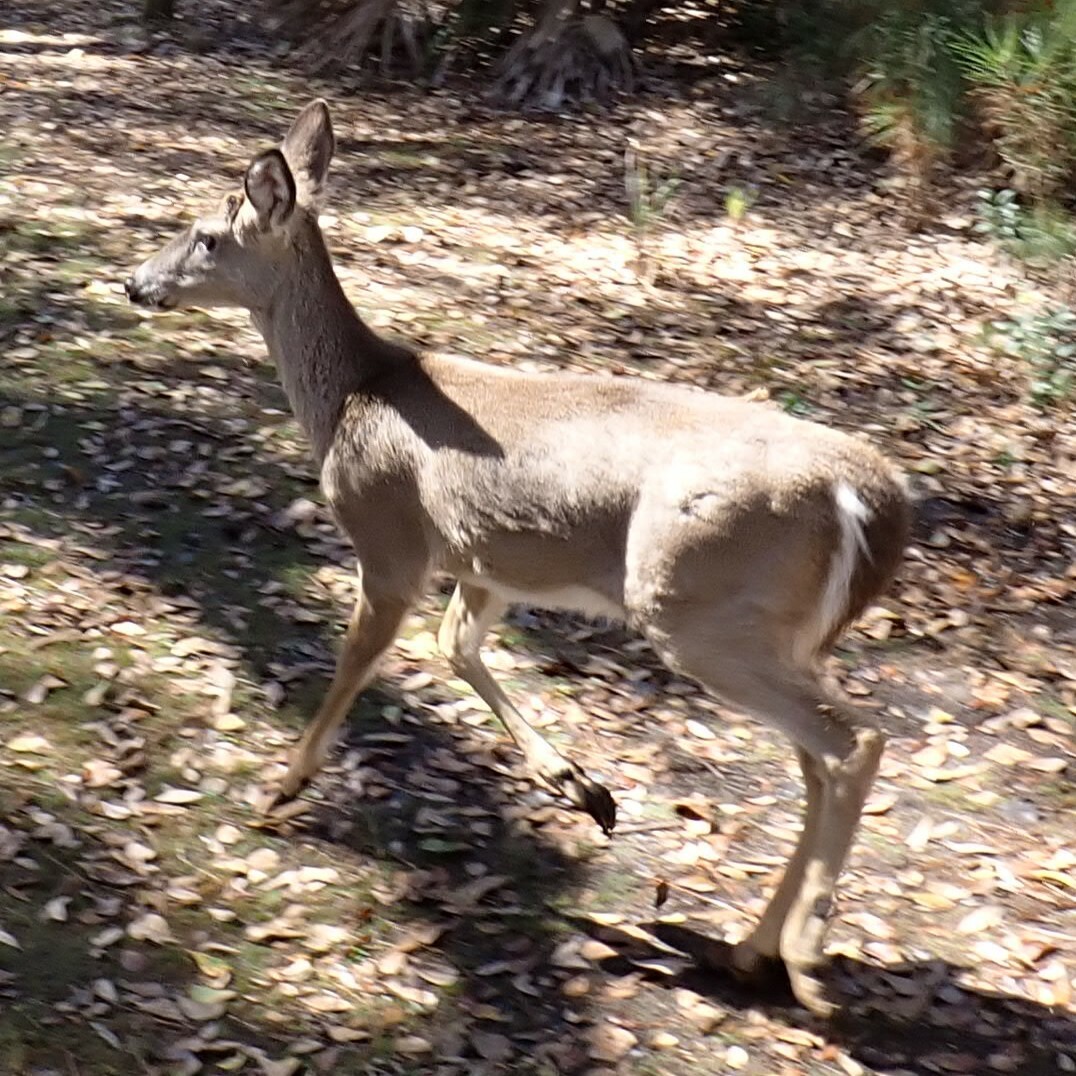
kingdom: Animalia
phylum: Chordata
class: Mammalia
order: Artiodactyla
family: Cervidae
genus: Odocoileus
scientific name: Odocoileus virginianus
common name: White-tailed deer
